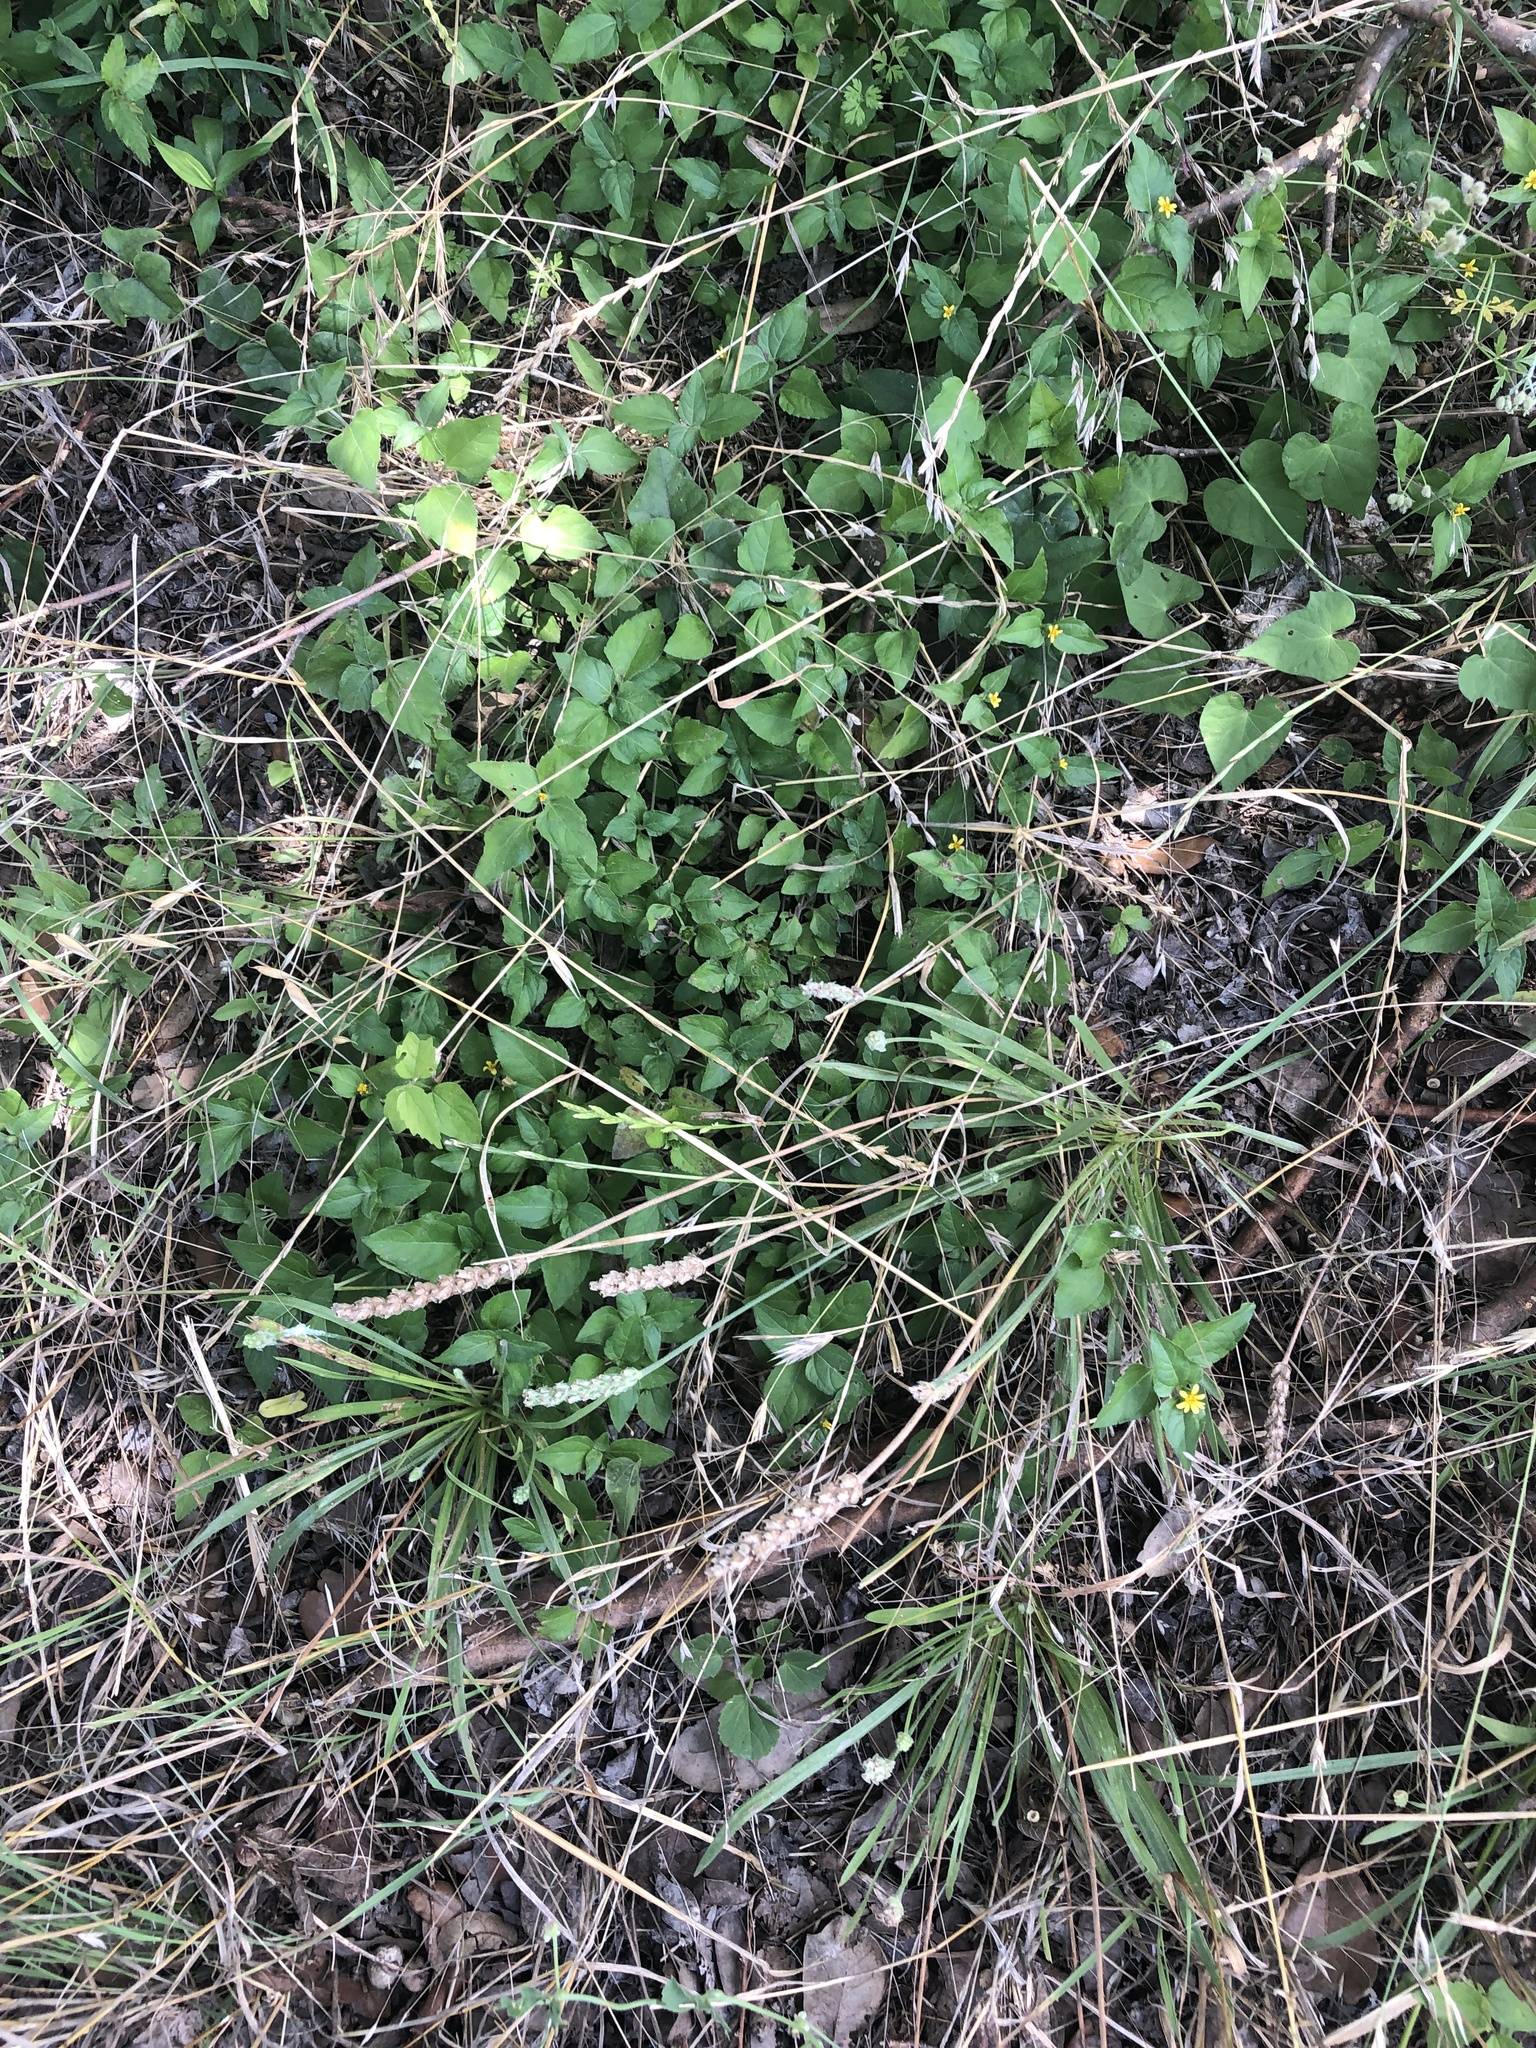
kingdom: Plantae
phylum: Tracheophyta
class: Magnoliopsida
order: Asterales
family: Asteraceae
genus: Calyptocarpus
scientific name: Calyptocarpus vialis
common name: Straggler daisy
